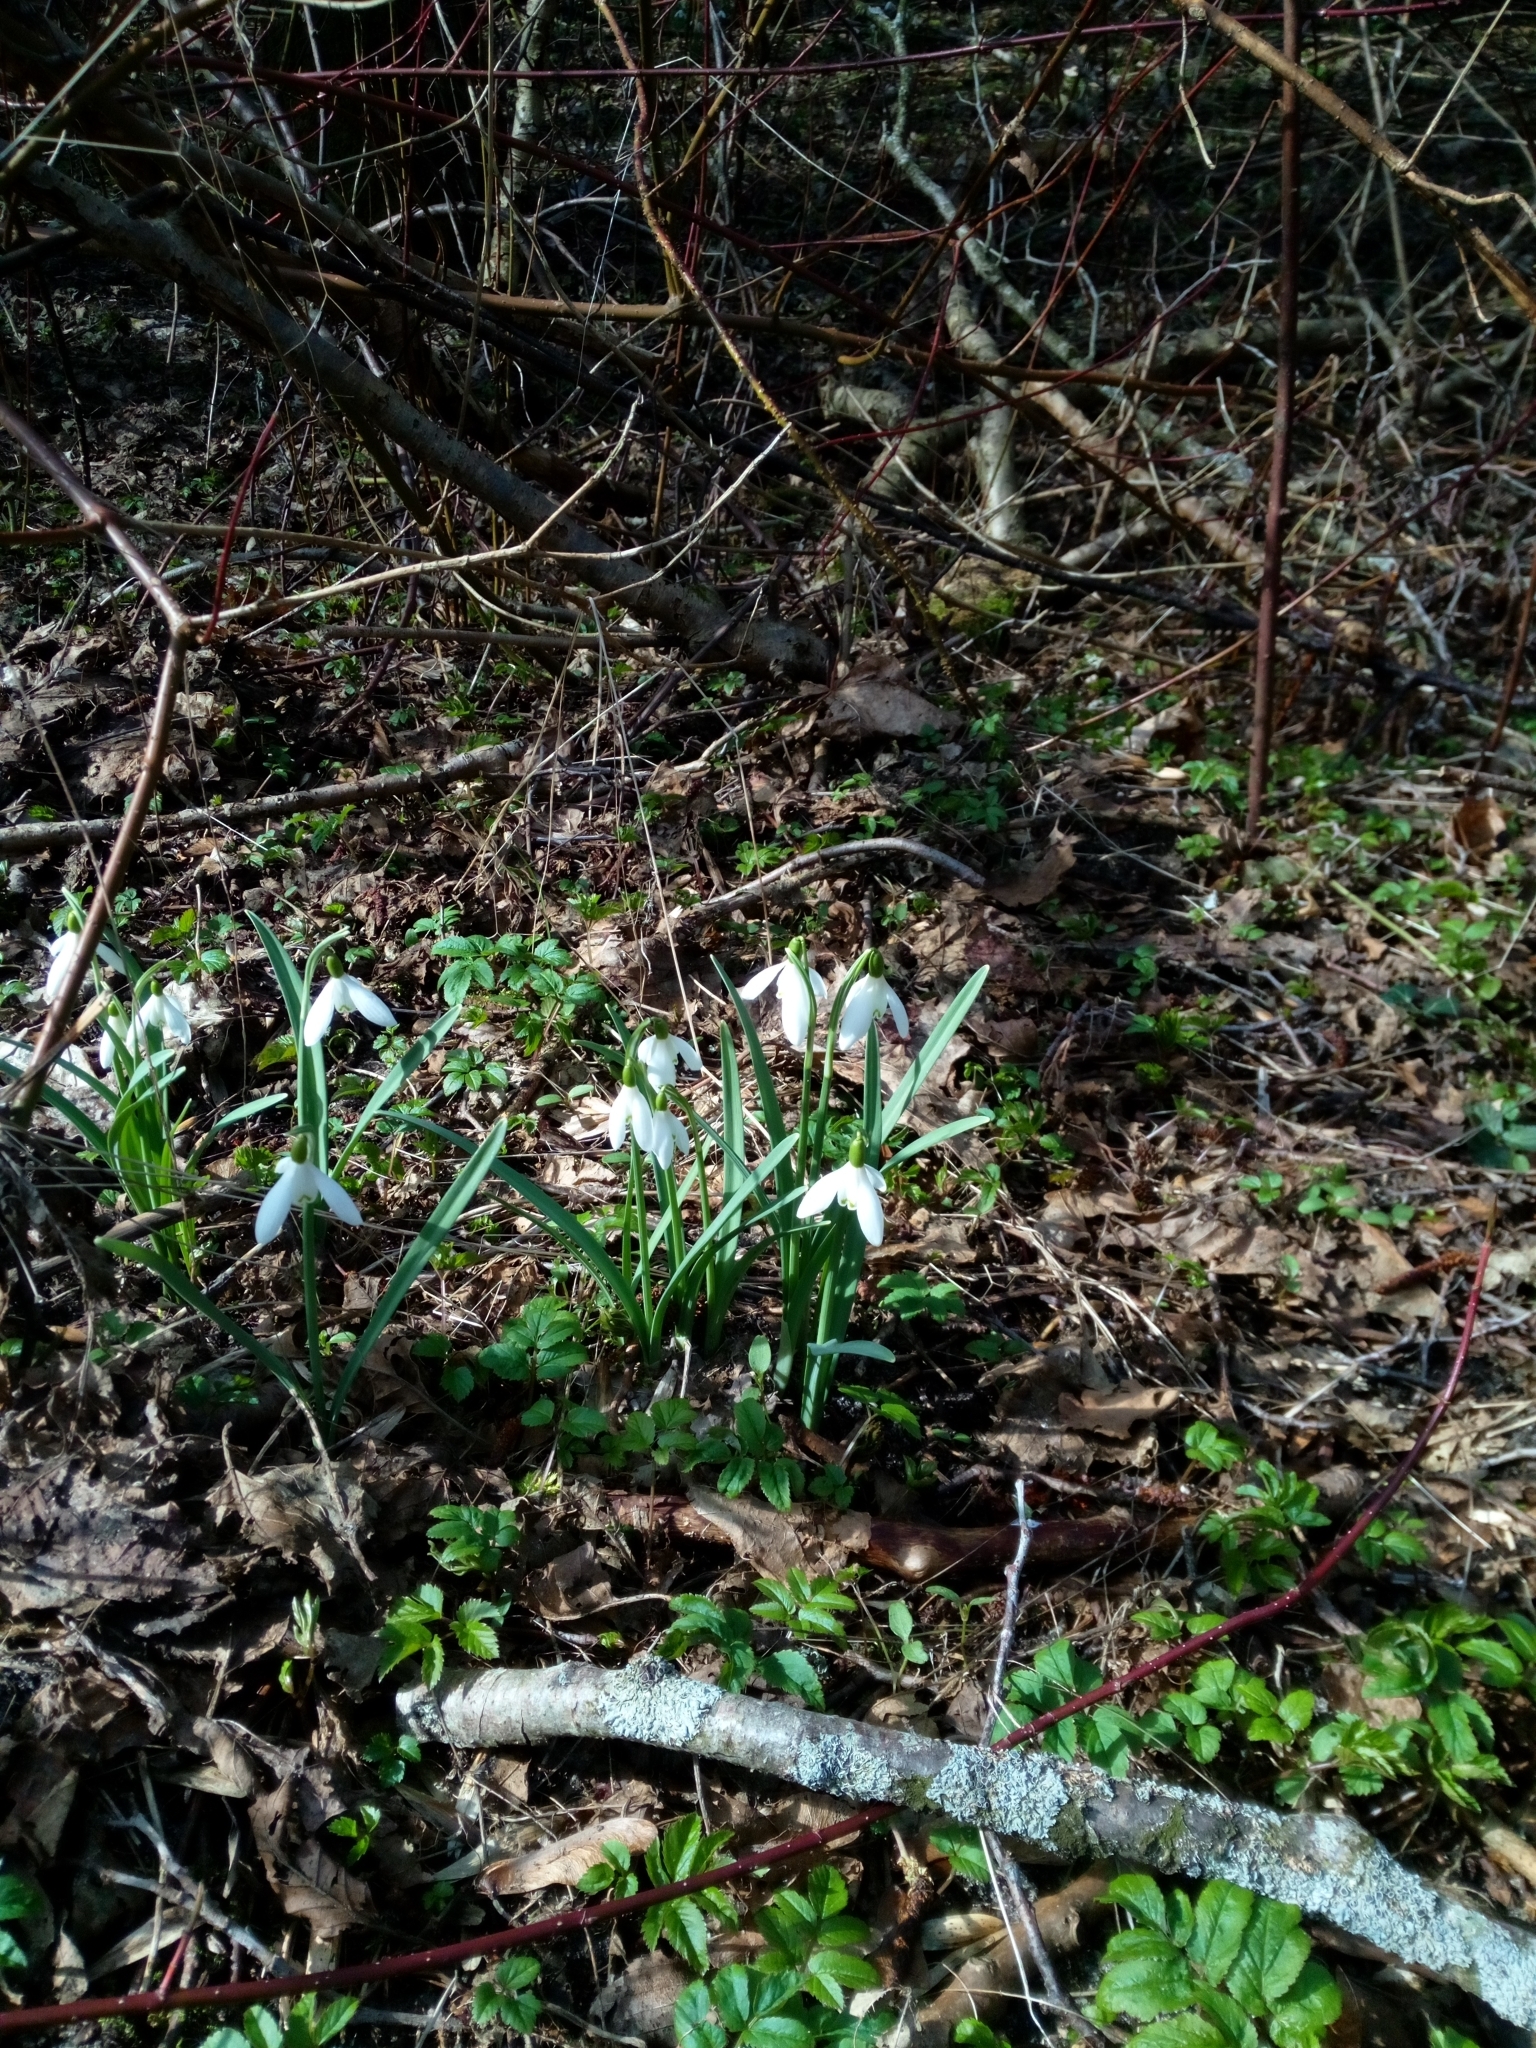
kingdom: Plantae
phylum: Tracheophyta
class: Liliopsida
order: Asparagales
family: Amaryllidaceae
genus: Galanthus
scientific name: Galanthus nivalis
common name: Snowdrop
